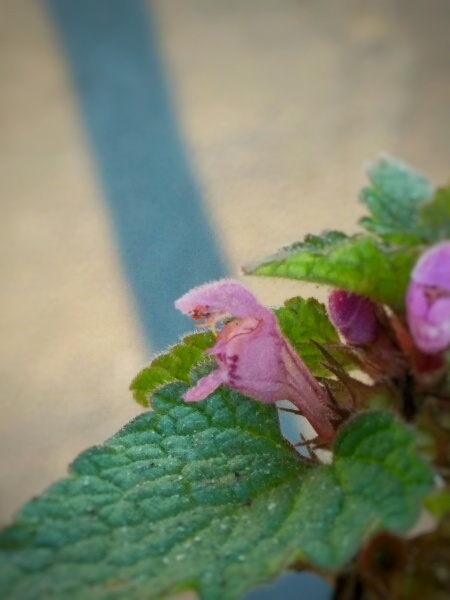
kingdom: Plantae
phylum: Tracheophyta
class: Magnoliopsida
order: Lamiales
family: Lamiaceae
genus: Lamium
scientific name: Lamium purpureum
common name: Red dead-nettle
